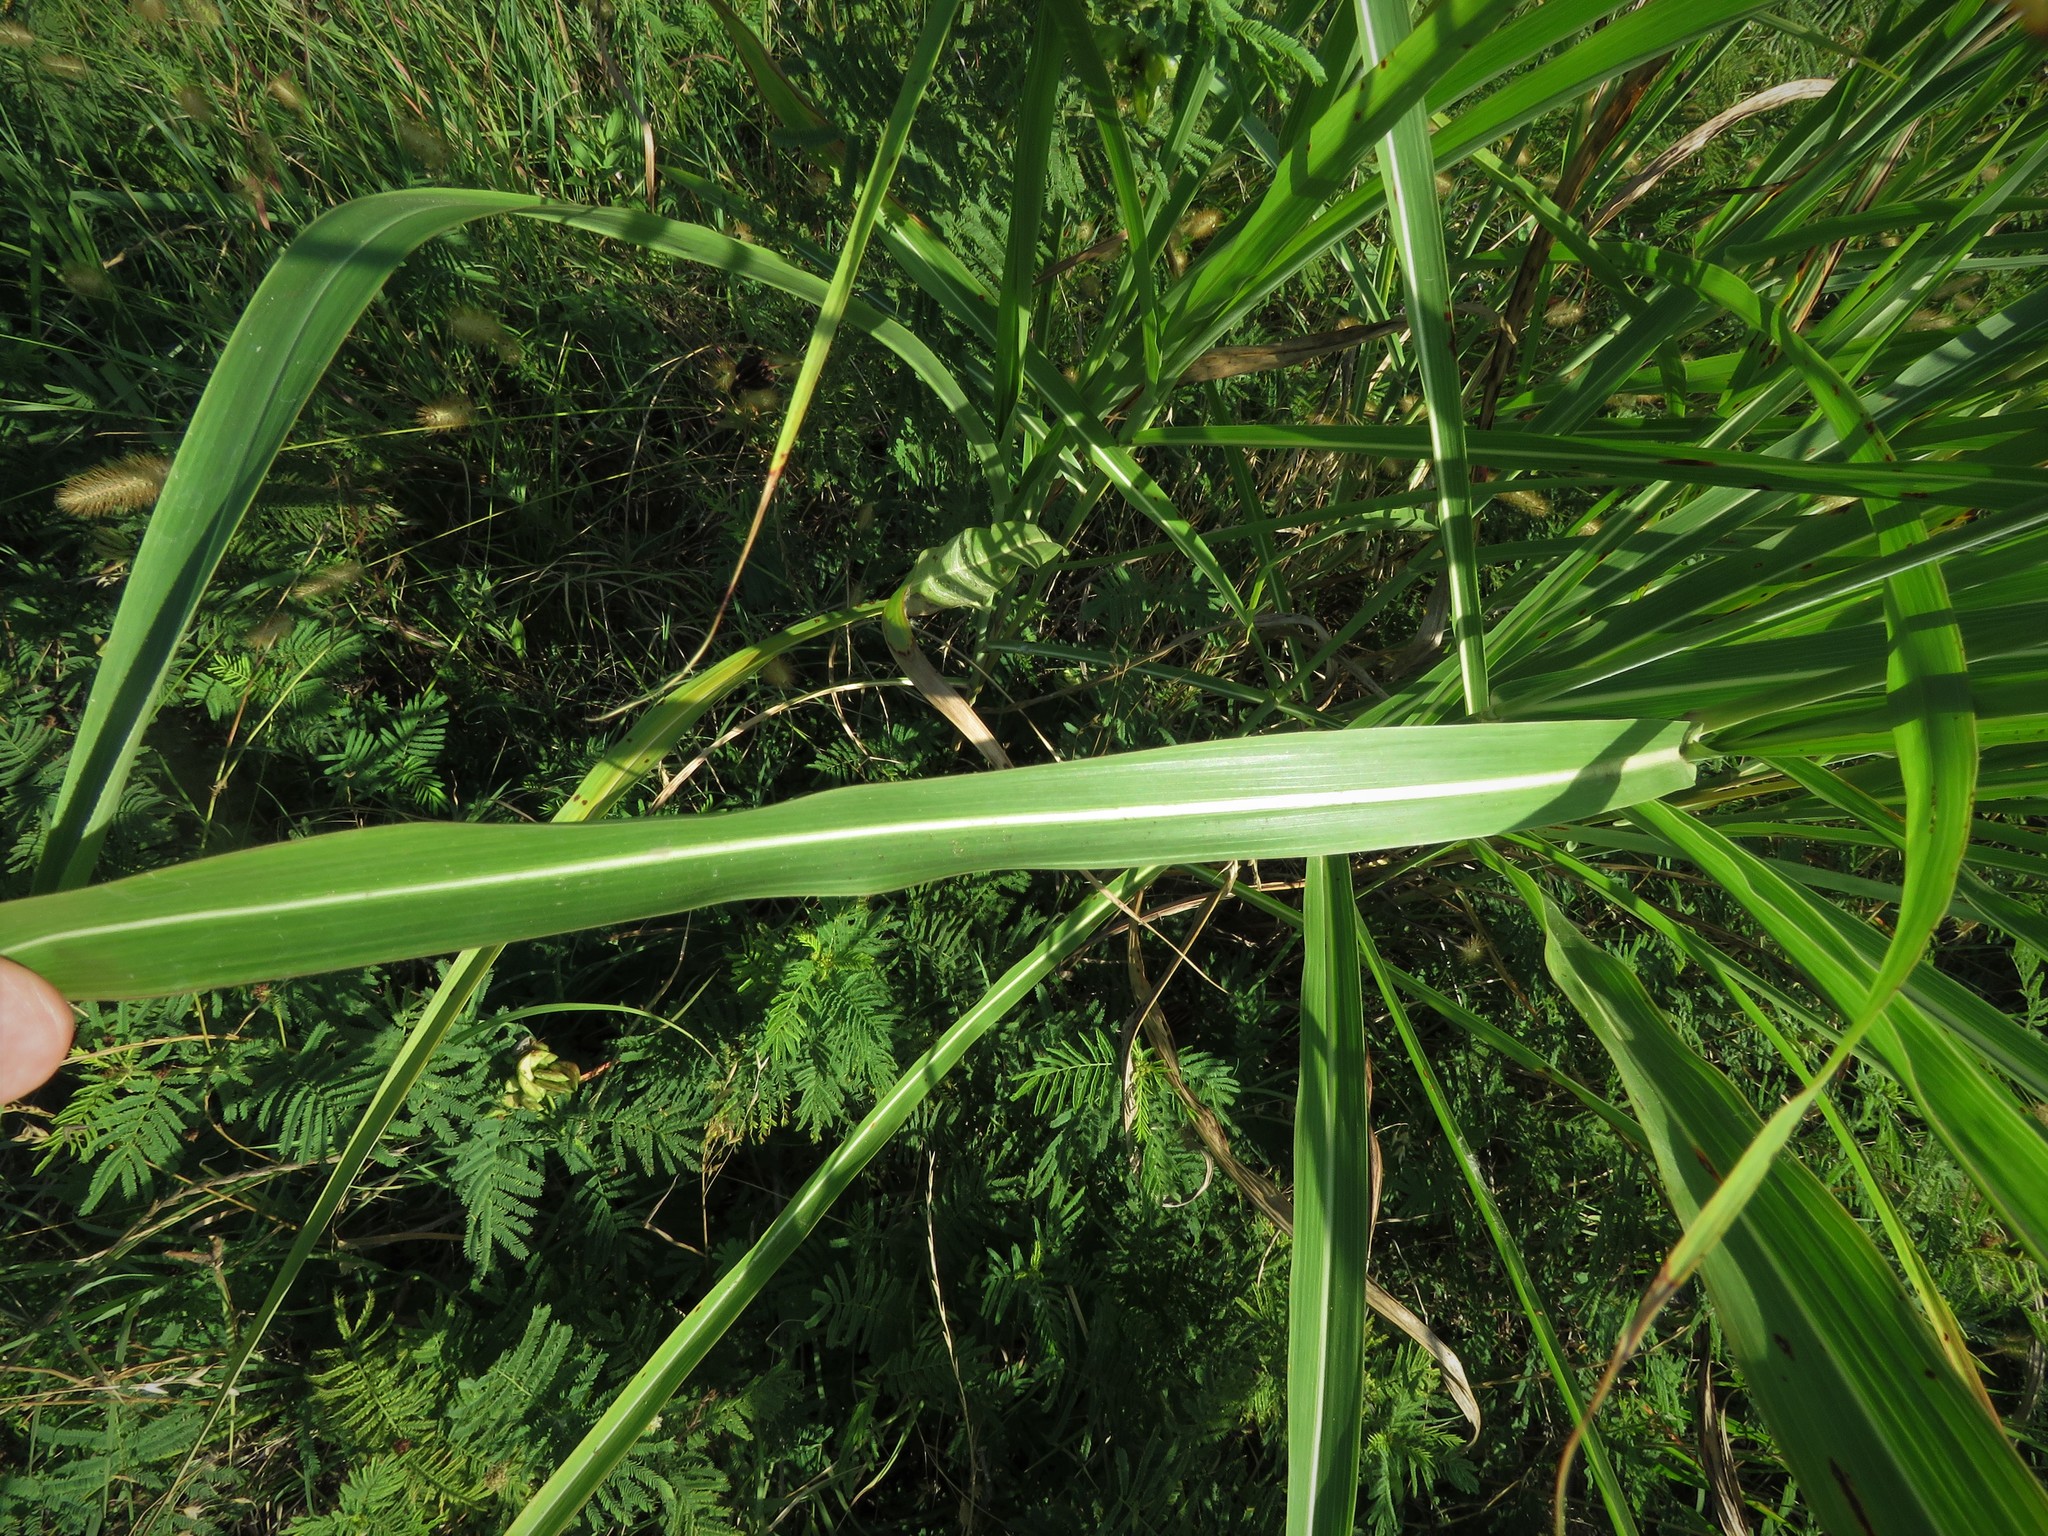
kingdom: Plantae
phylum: Tracheophyta
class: Liliopsida
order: Poales
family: Poaceae
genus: Sorghum
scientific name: Sorghum halepense
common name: Johnson-grass
